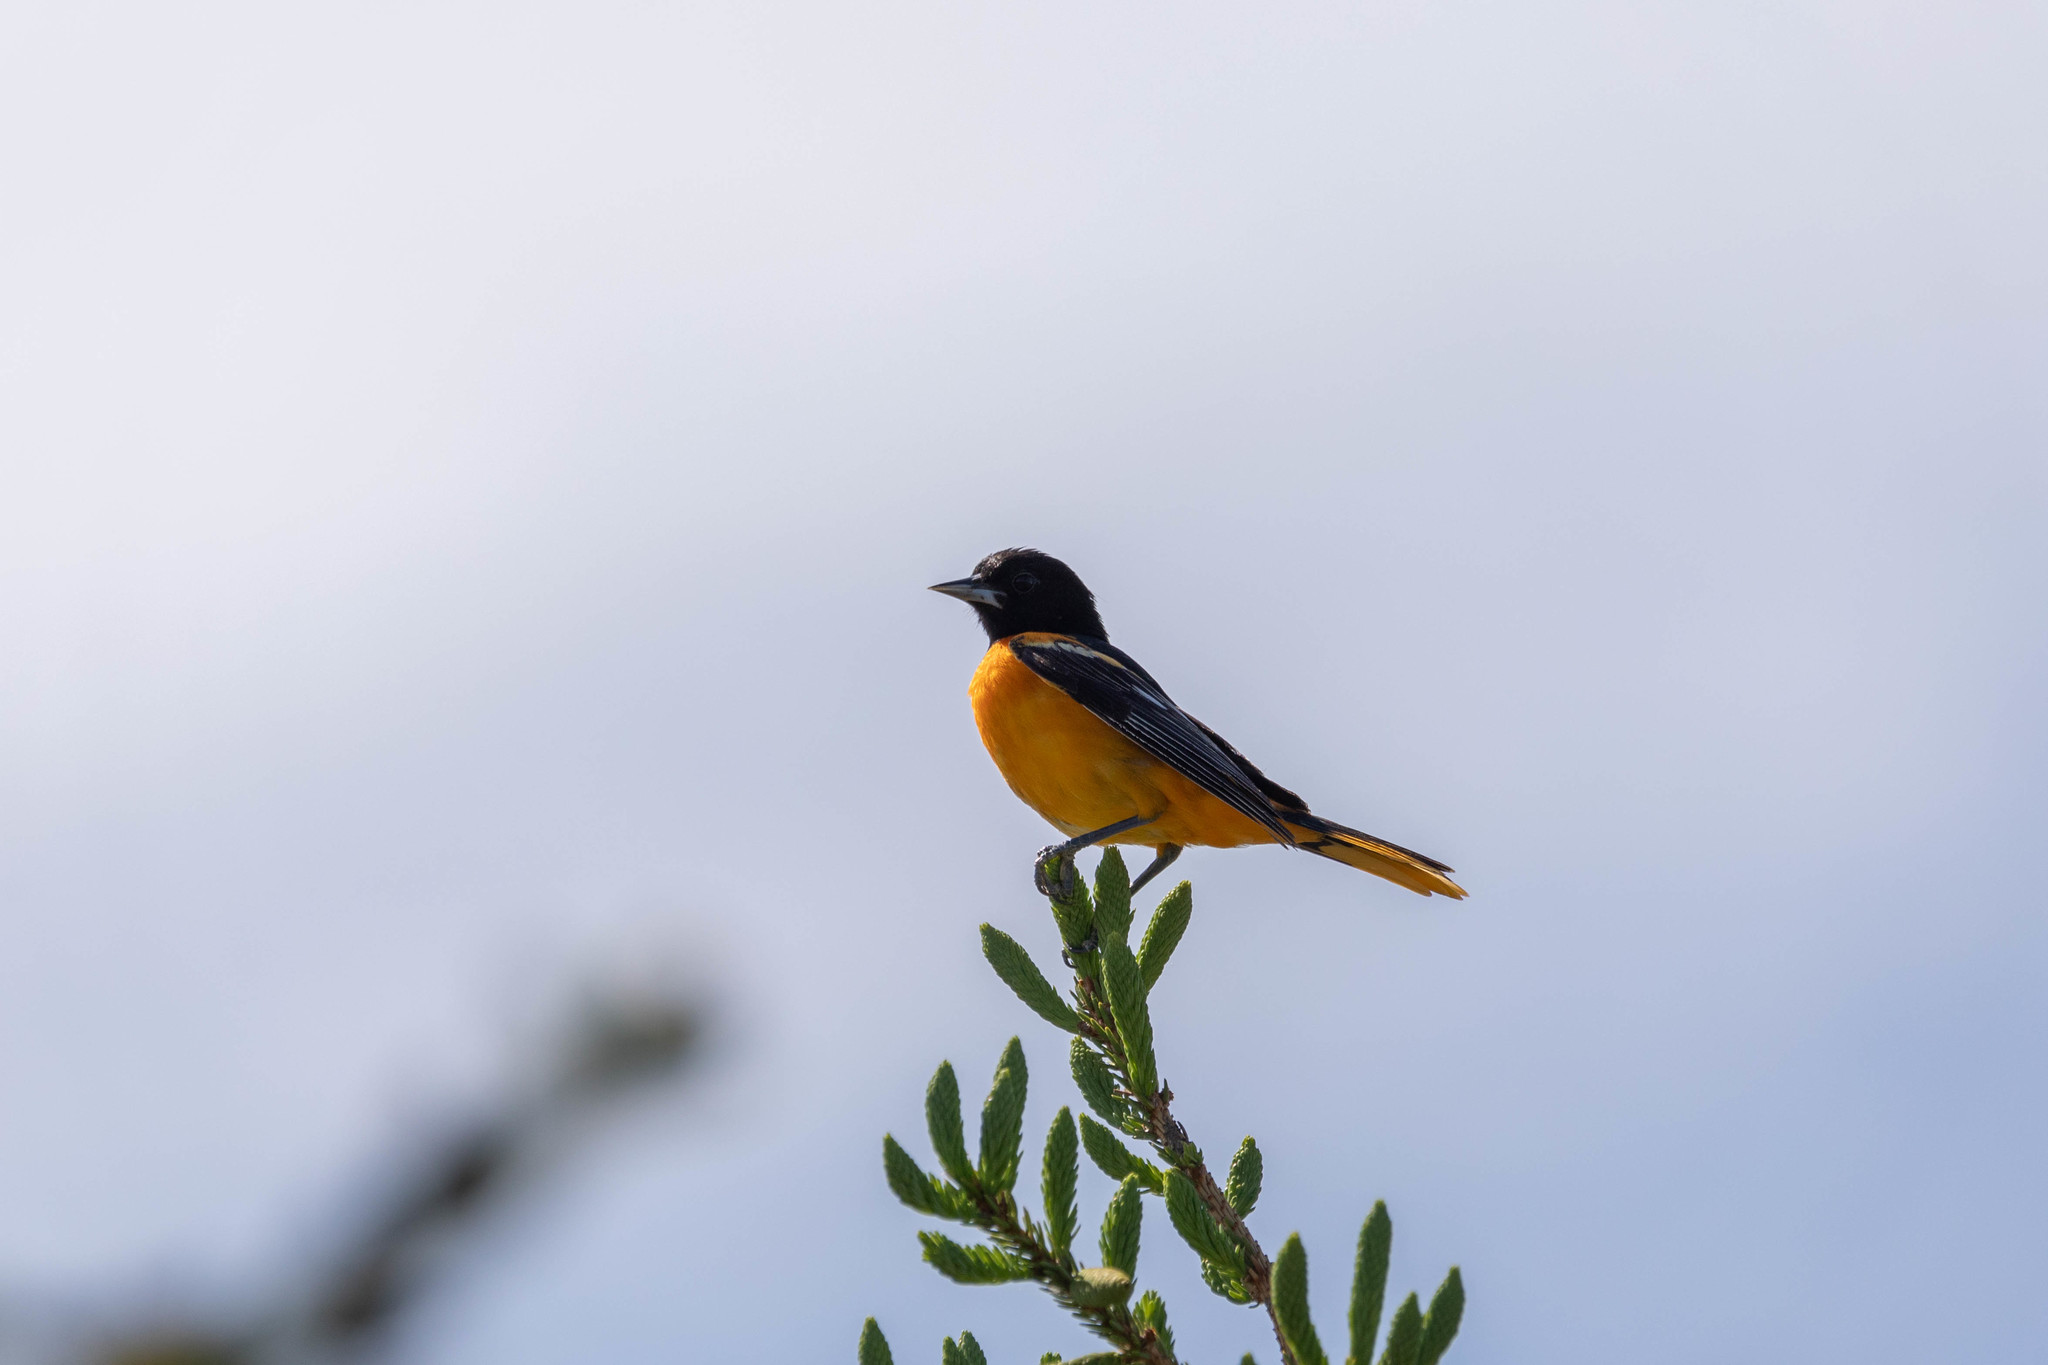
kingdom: Animalia
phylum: Chordata
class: Aves
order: Passeriformes
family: Icteridae
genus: Icterus
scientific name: Icterus galbula
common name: Baltimore oriole
